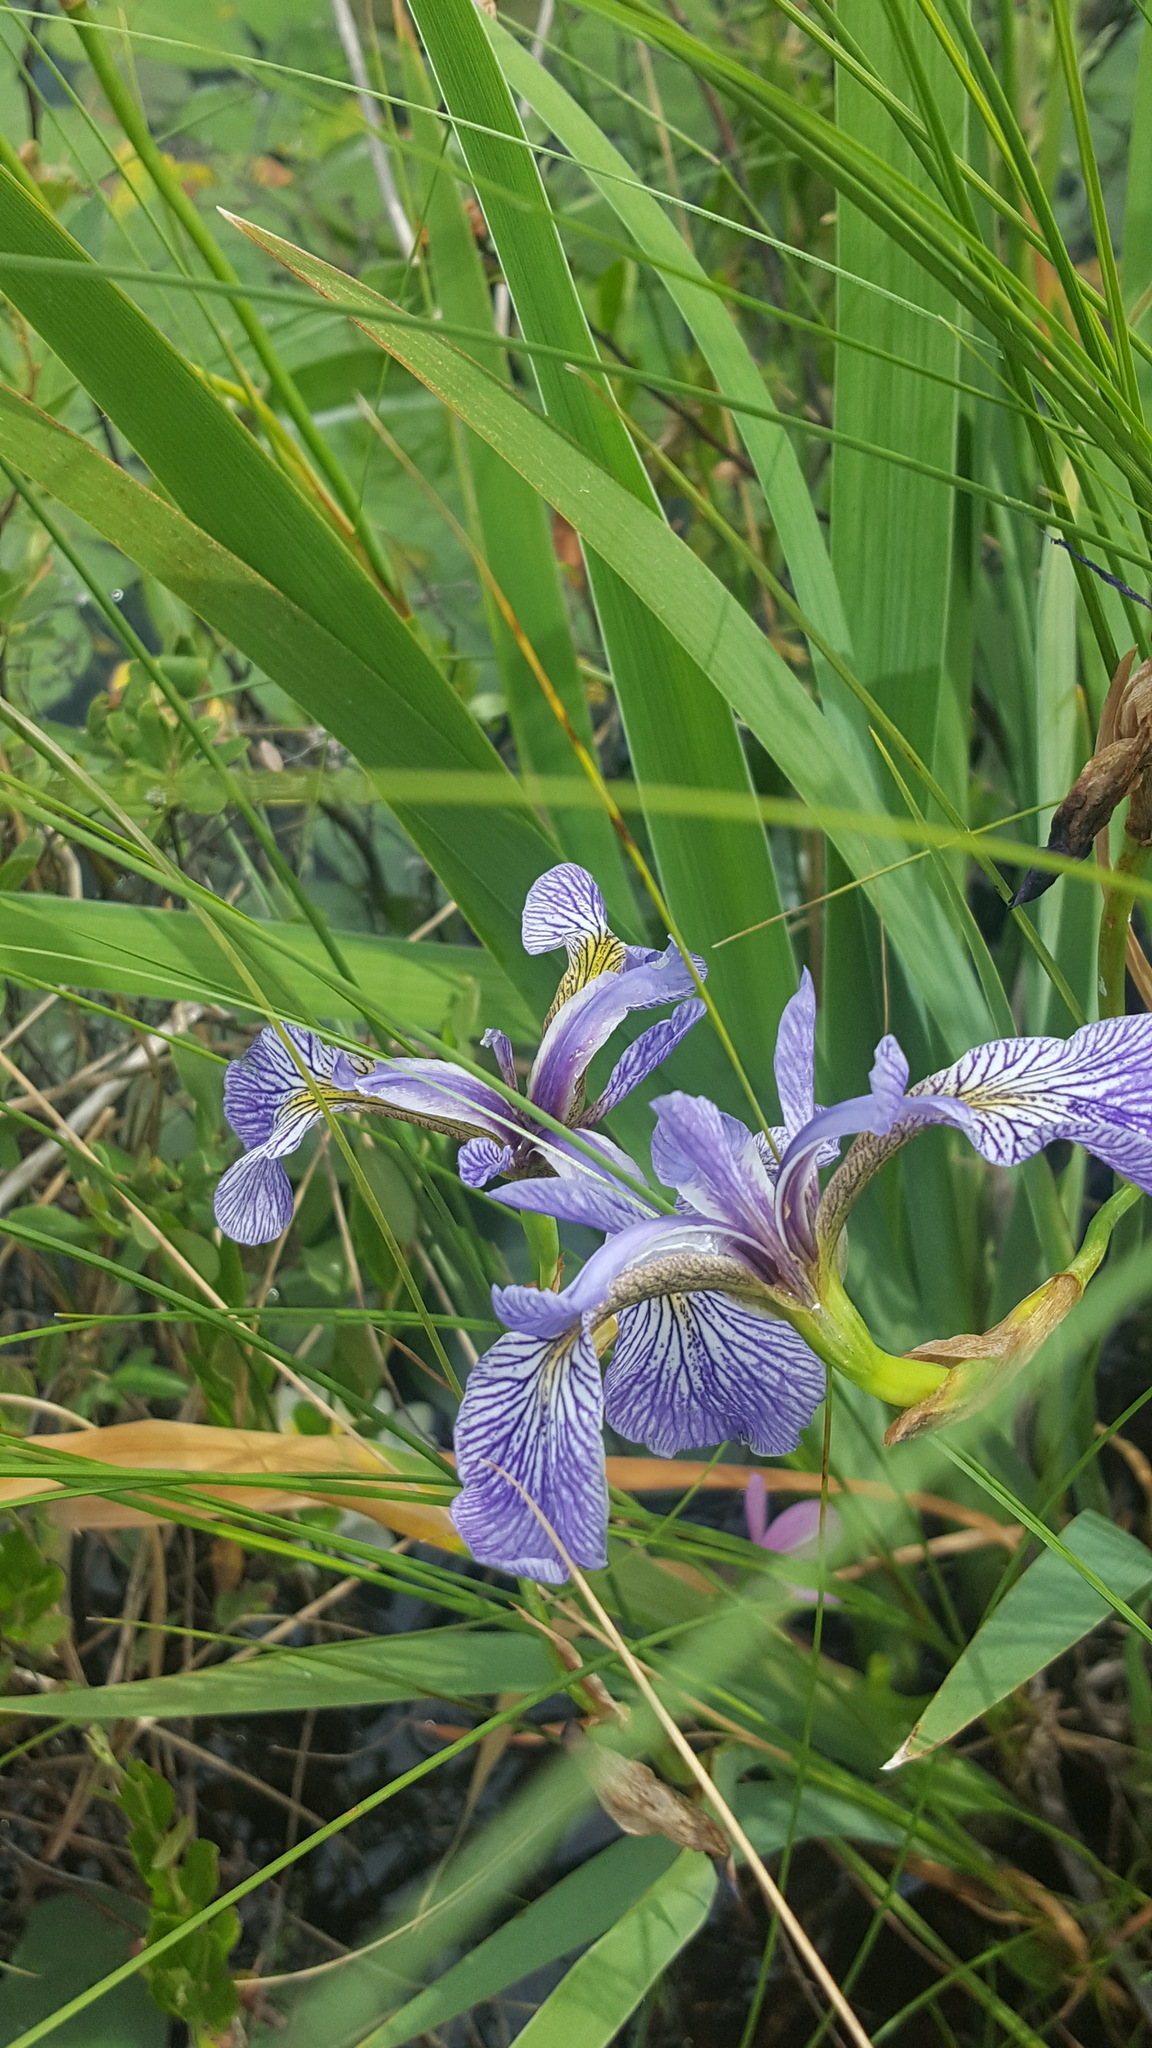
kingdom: Plantae
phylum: Tracheophyta
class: Liliopsida
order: Asparagales
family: Iridaceae
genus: Iris
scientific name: Iris versicolor
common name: Purple iris
